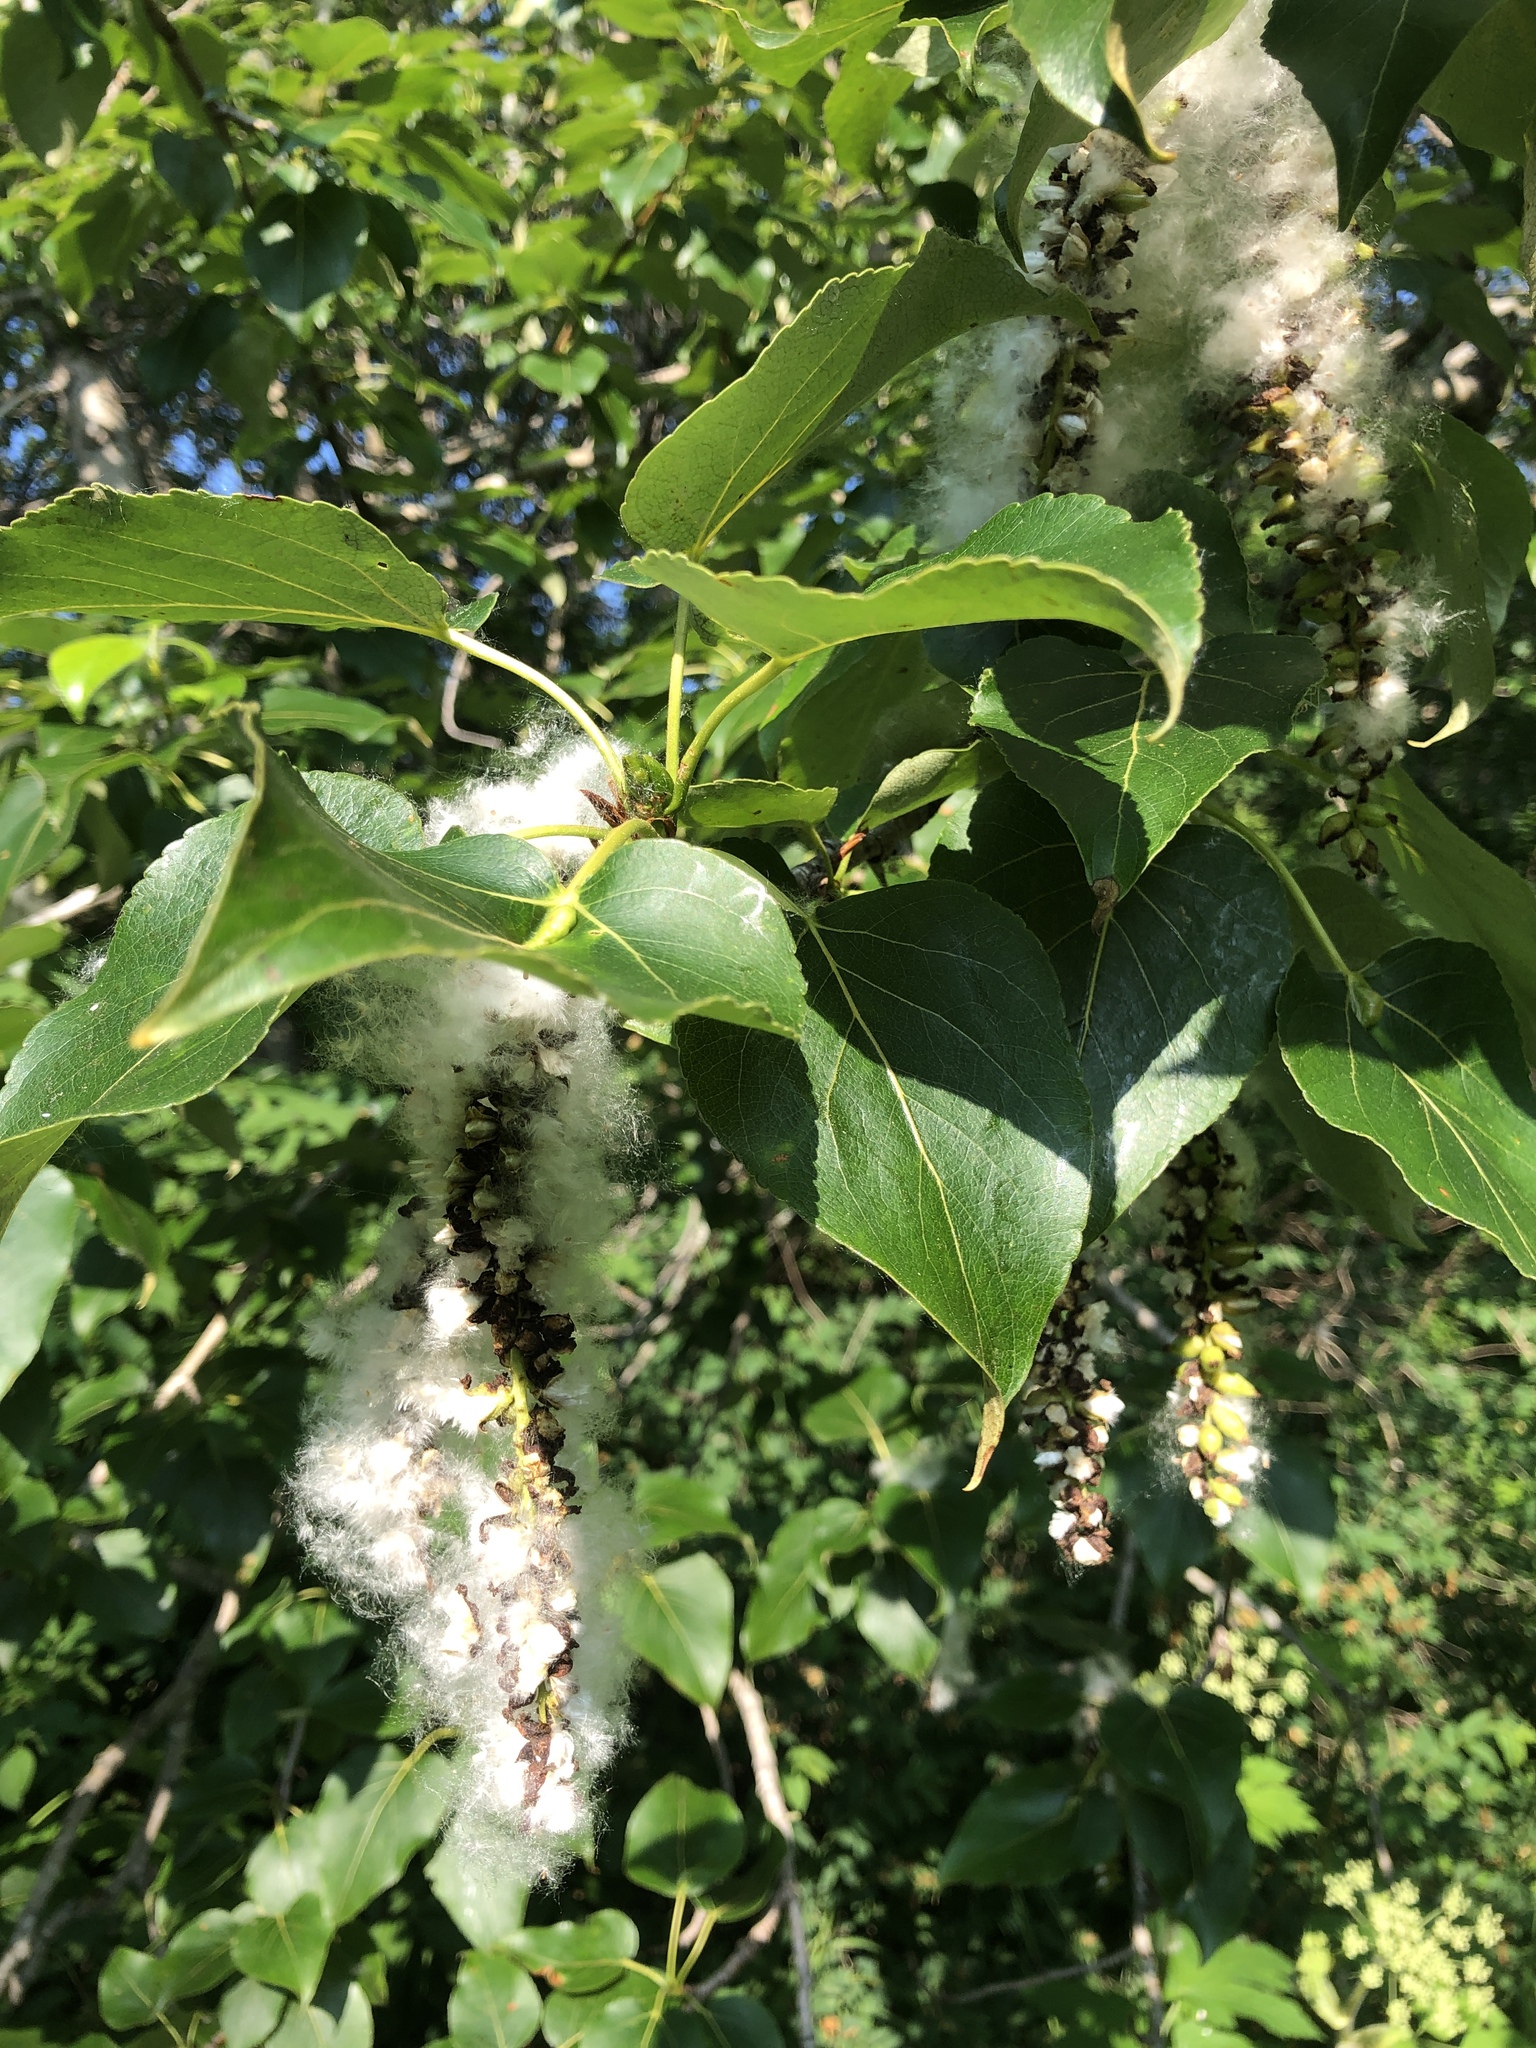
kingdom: Plantae
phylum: Tracheophyta
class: Magnoliopsida
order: Malpighiales
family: Salicaceae
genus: Populus
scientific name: Populus balsamifera
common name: Balsam poplar
